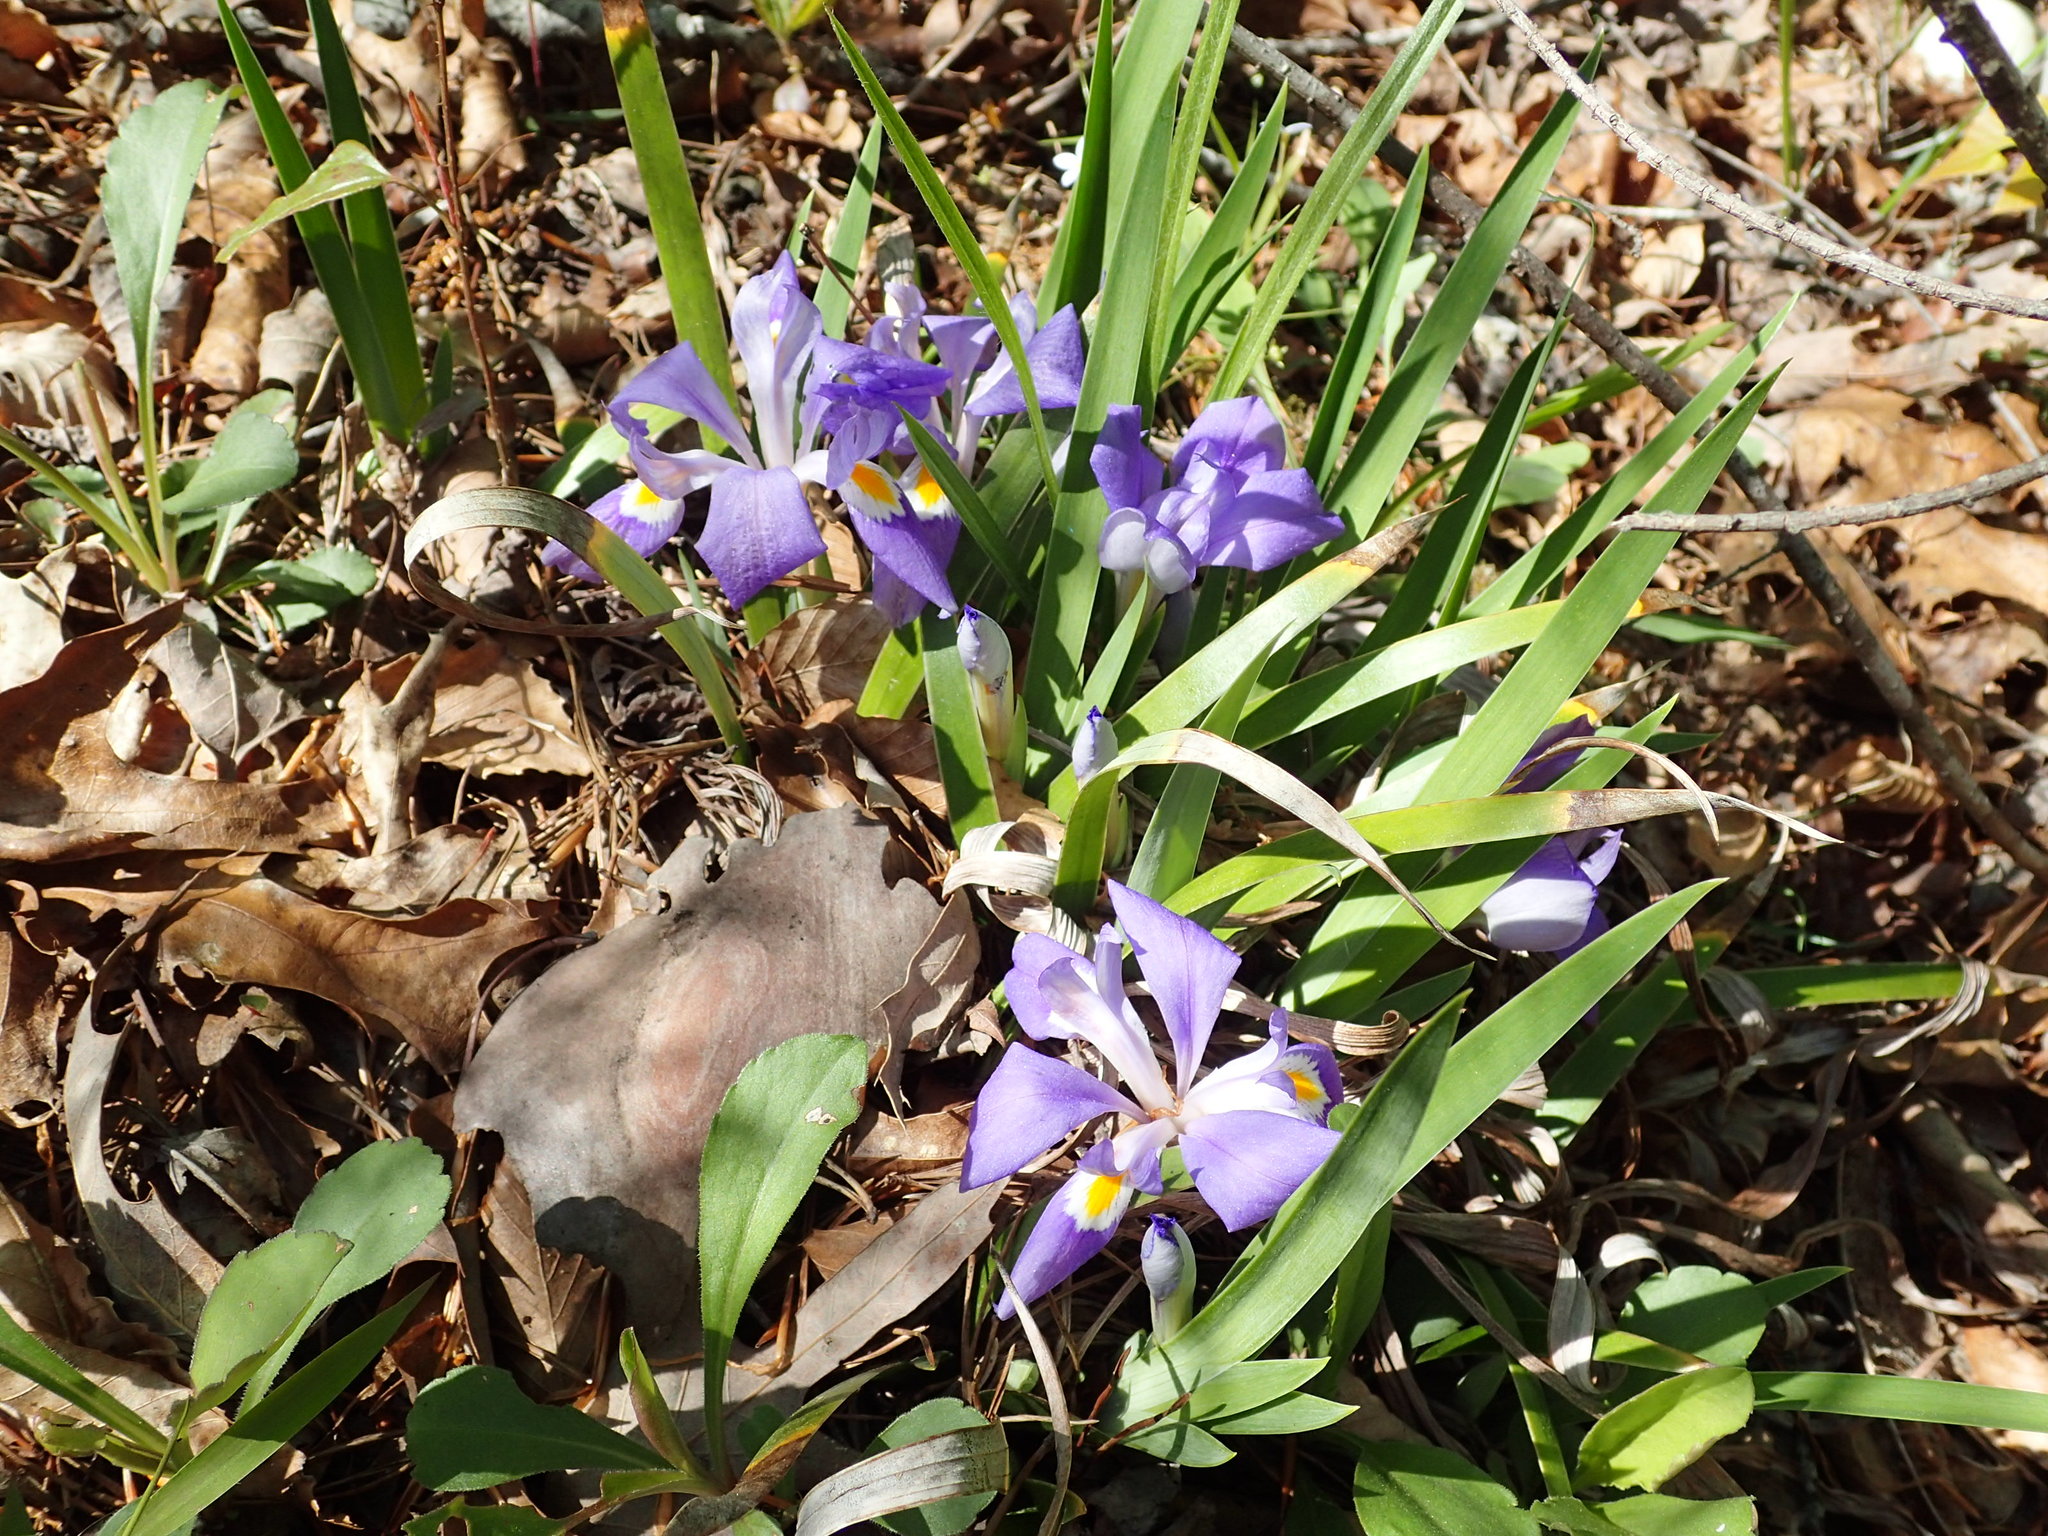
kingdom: Plantae
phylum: Tracheophyta
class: Liliopsida
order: Asparagales
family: Iridaceae
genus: Iris
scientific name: Iris verna
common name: Dwarf iris
